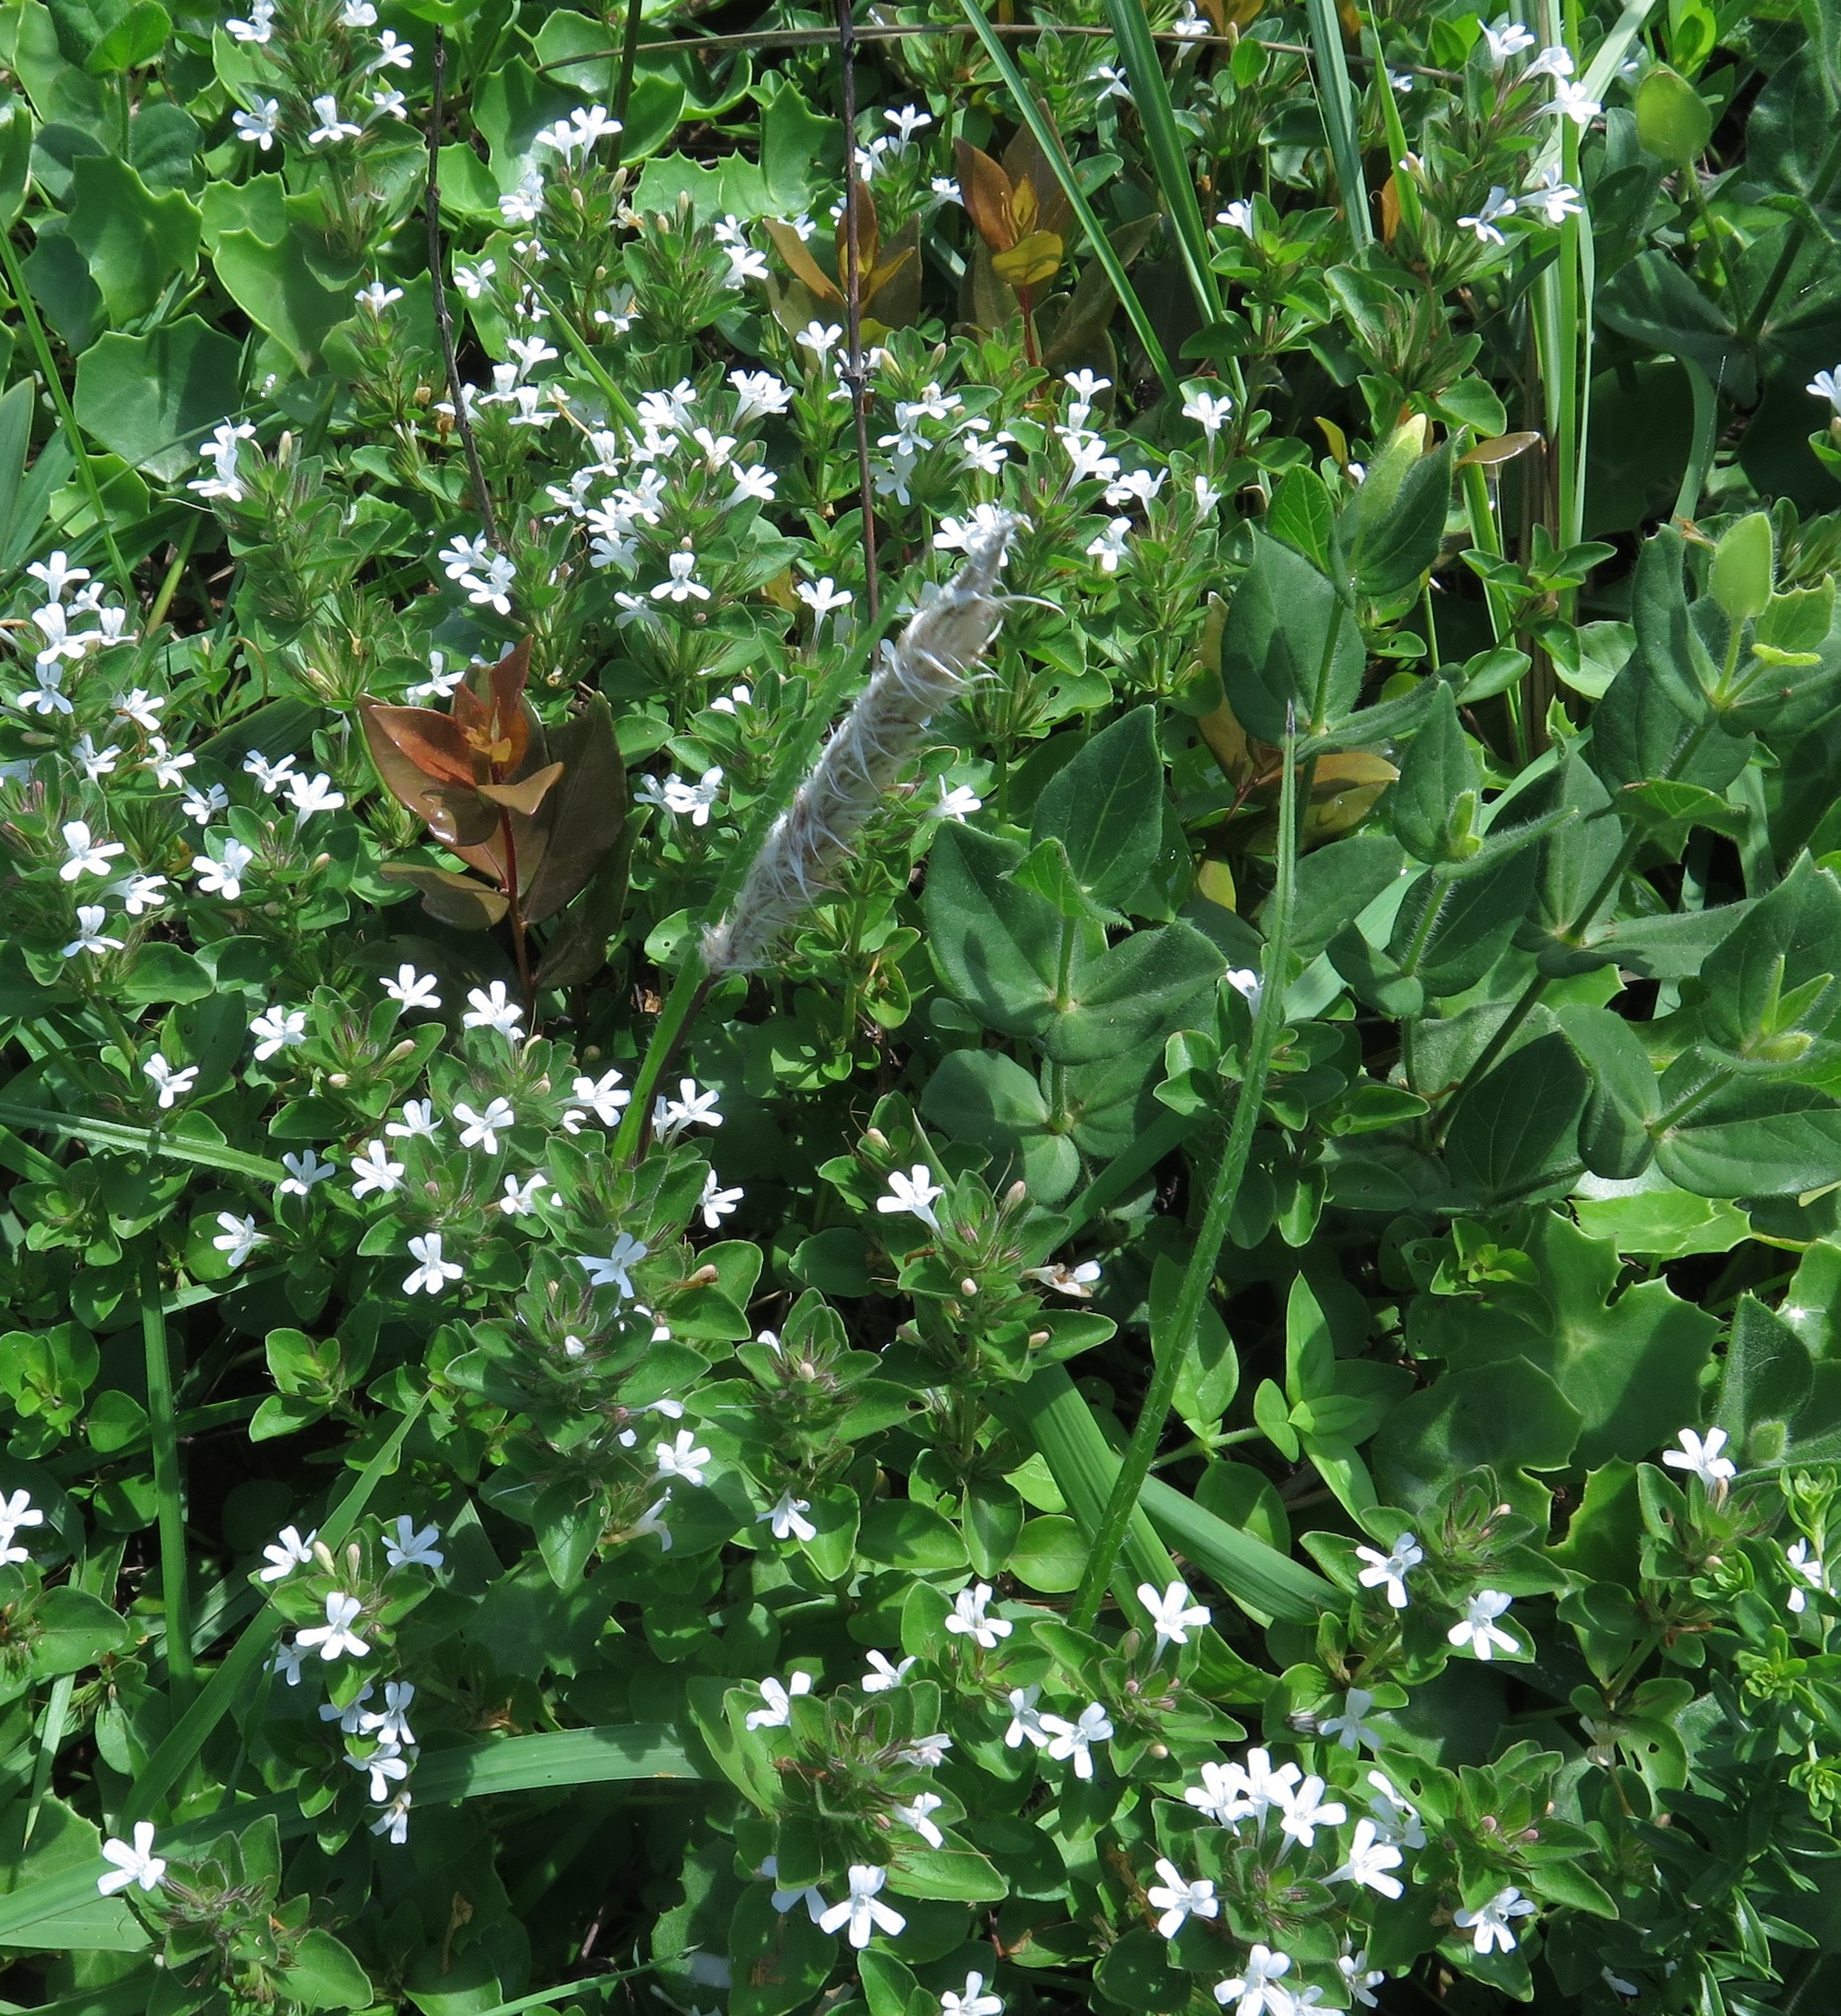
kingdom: Plantae
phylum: Tracheophyta
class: Magnoliopsida
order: Lamiales
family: Acanthaceae
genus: Phaulopsis
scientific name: Phaulopsis imbricata
